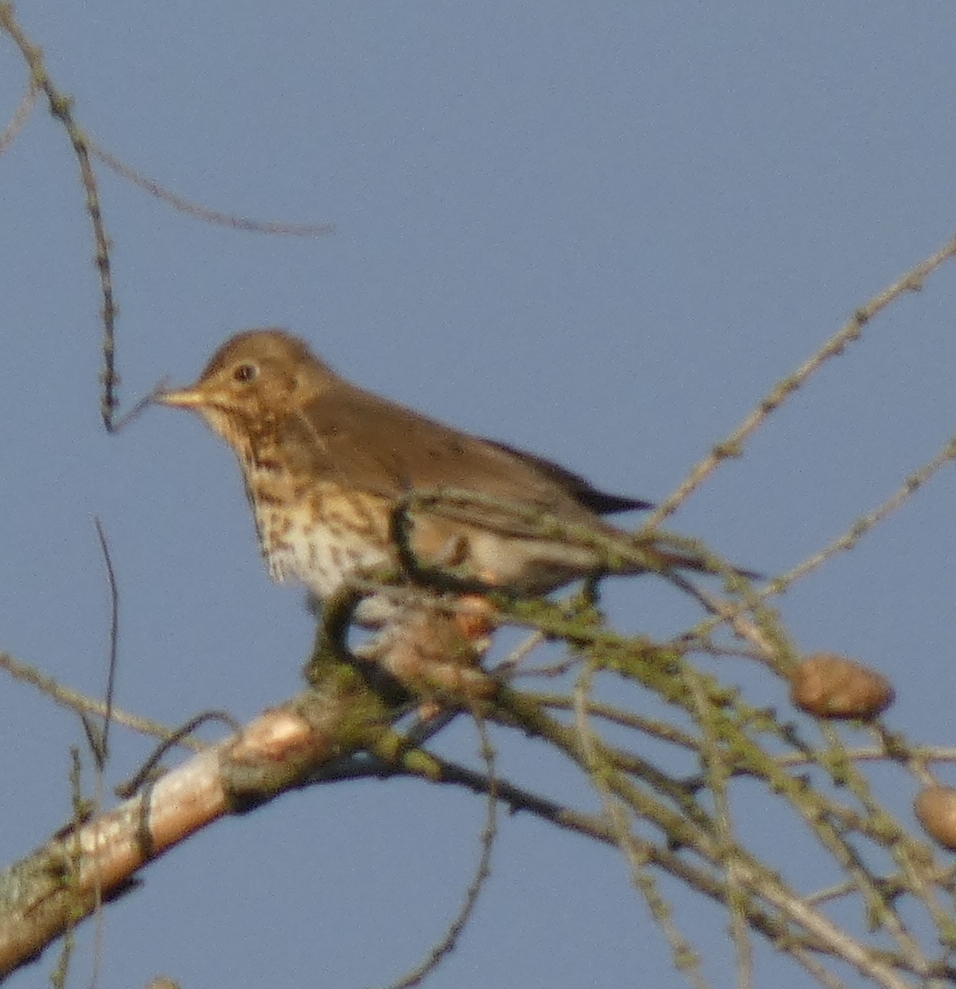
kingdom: Animalia
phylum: Chordata
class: Aves
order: Passeriformes
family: Turdidae
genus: Turdus
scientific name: Turdus philomelos
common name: Song thrush
